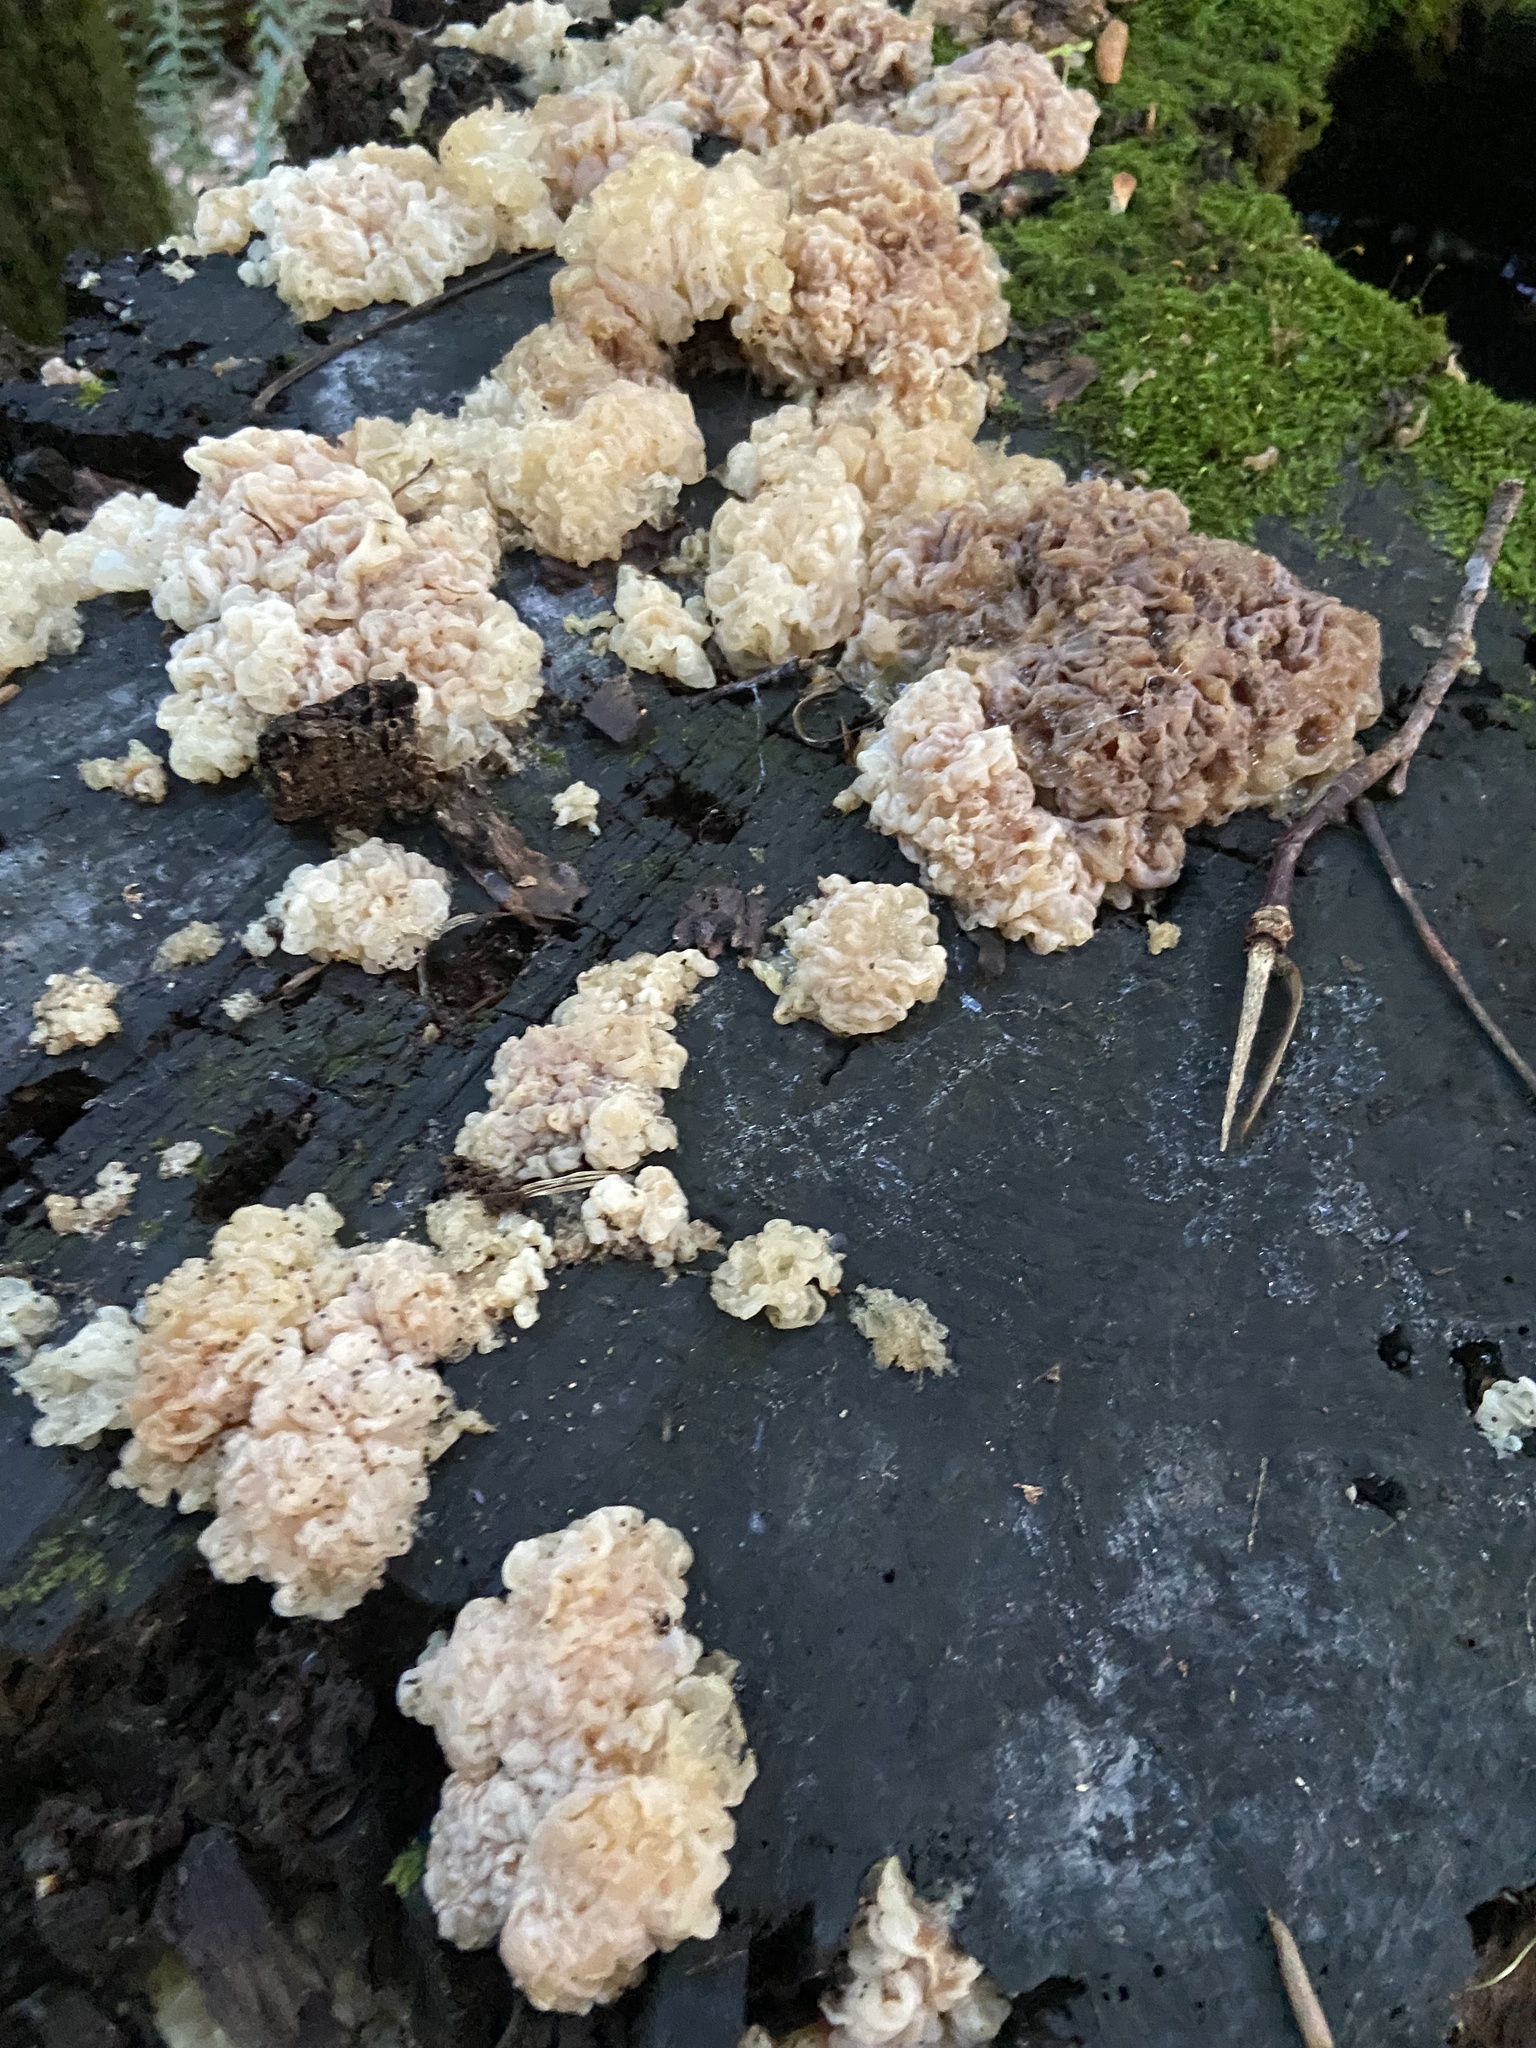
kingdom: Fungi
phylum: Basidiomycota
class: Agaricomycetes
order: Auriculariales
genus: Ductifera
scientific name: Ductifera pululahuana
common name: White jelly fungus
